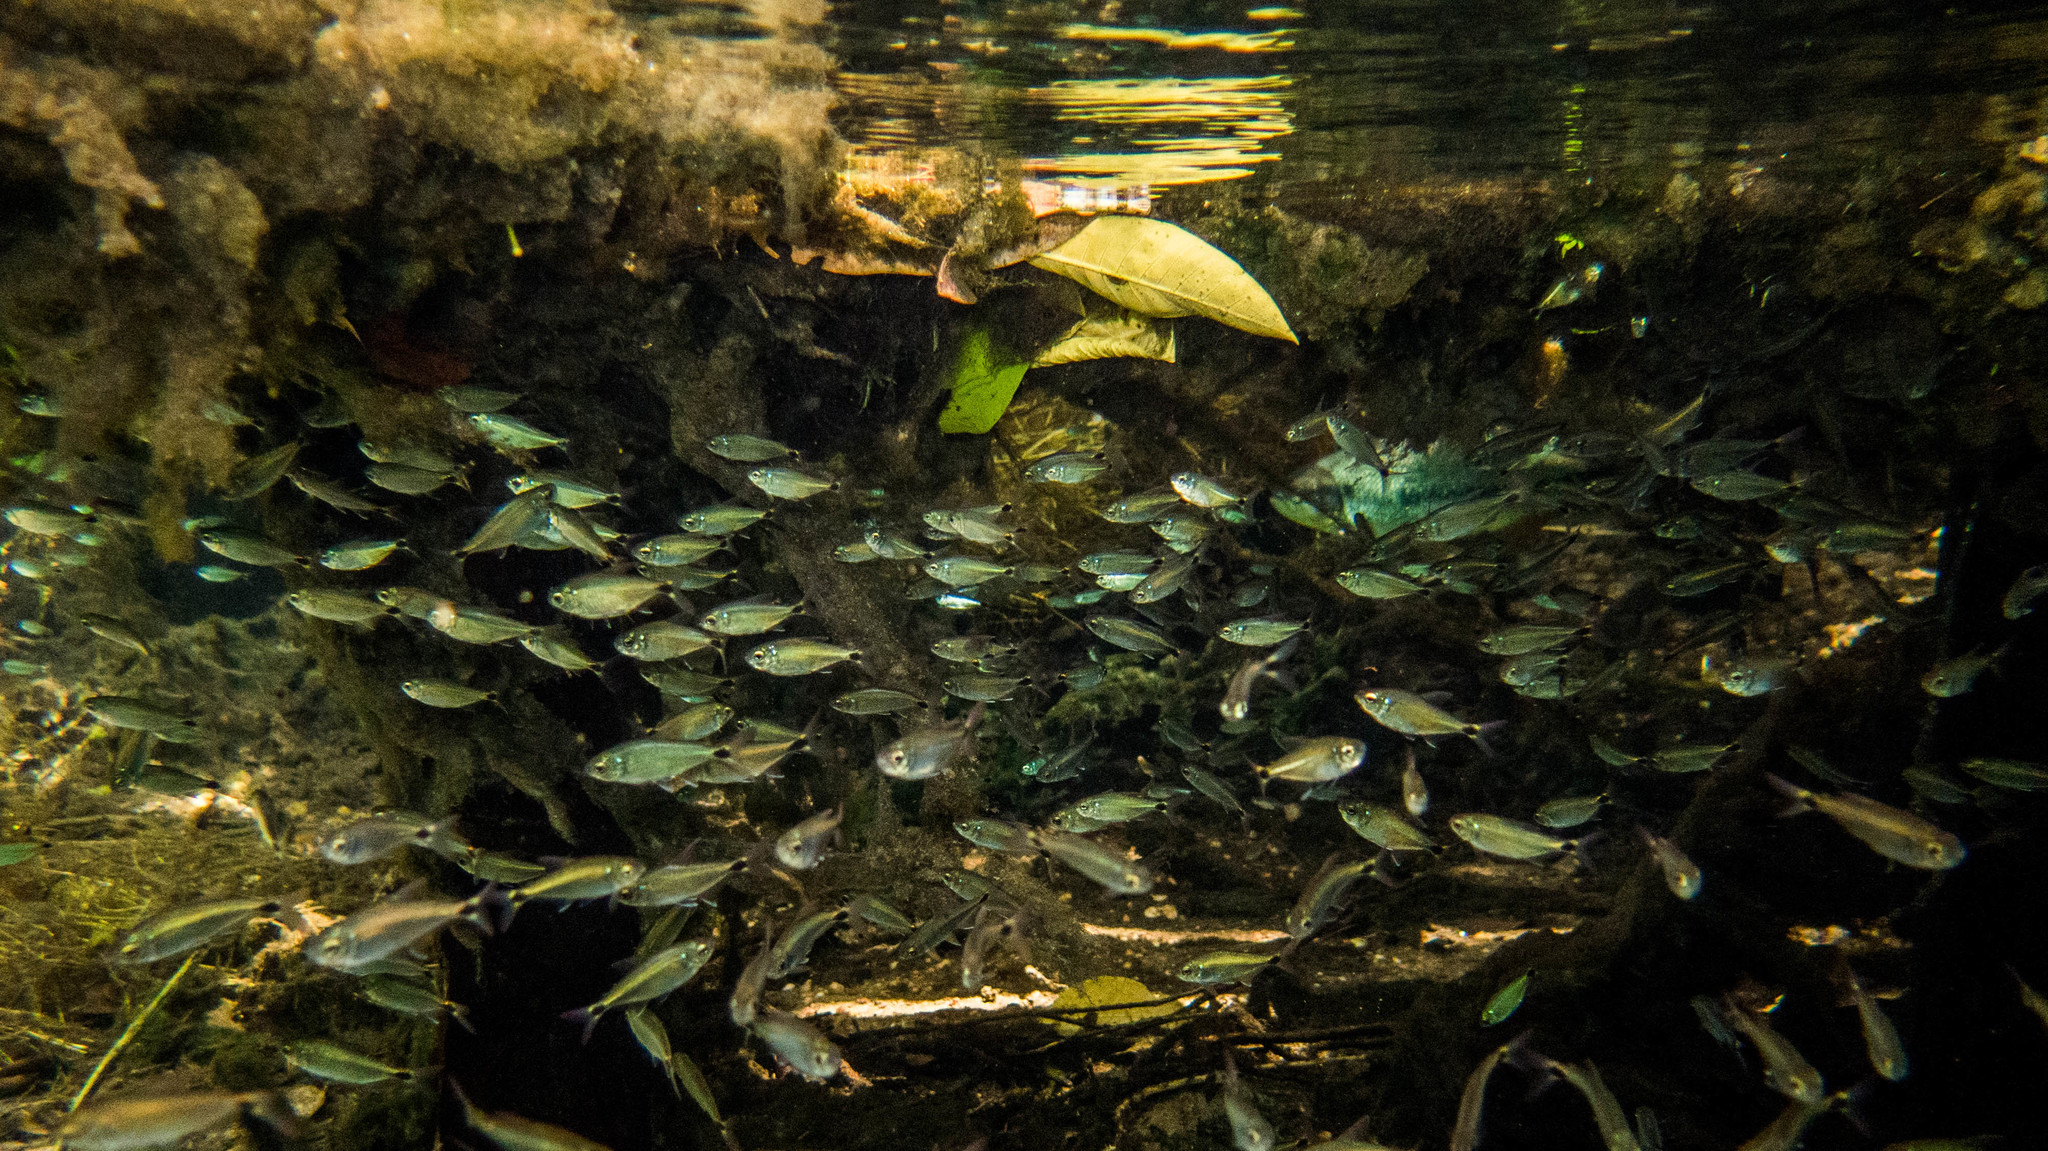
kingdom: Animalia
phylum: Chordata
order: Characiformes
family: Characidae
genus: Jupiaba
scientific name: Jupiaba acanthogaster
